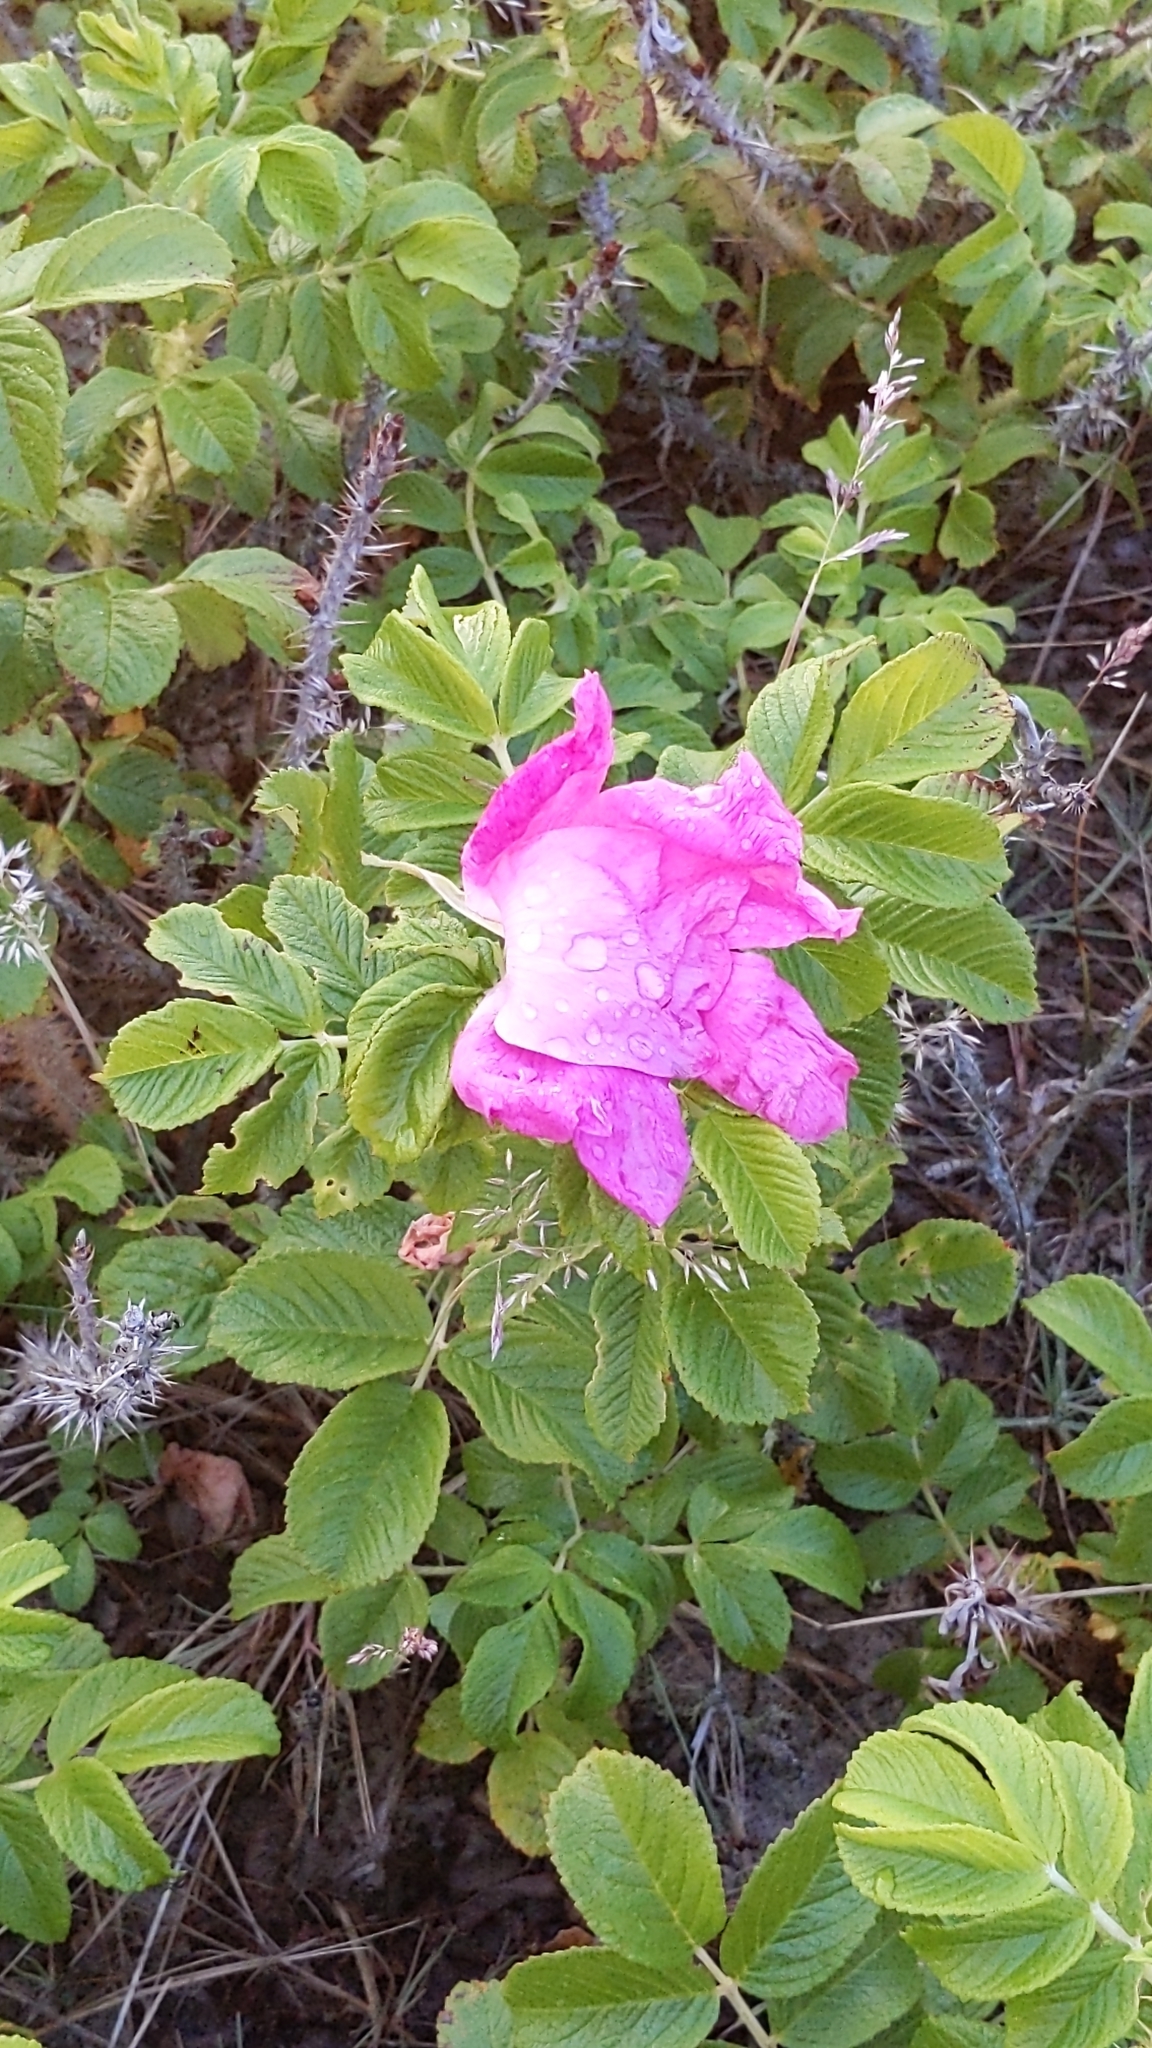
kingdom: Plantae
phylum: Tracheophyta
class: Magnoliopsida
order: Rosales
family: Rosaceae
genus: Rosa
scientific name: Rosa rugosa
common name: Japanese rose
